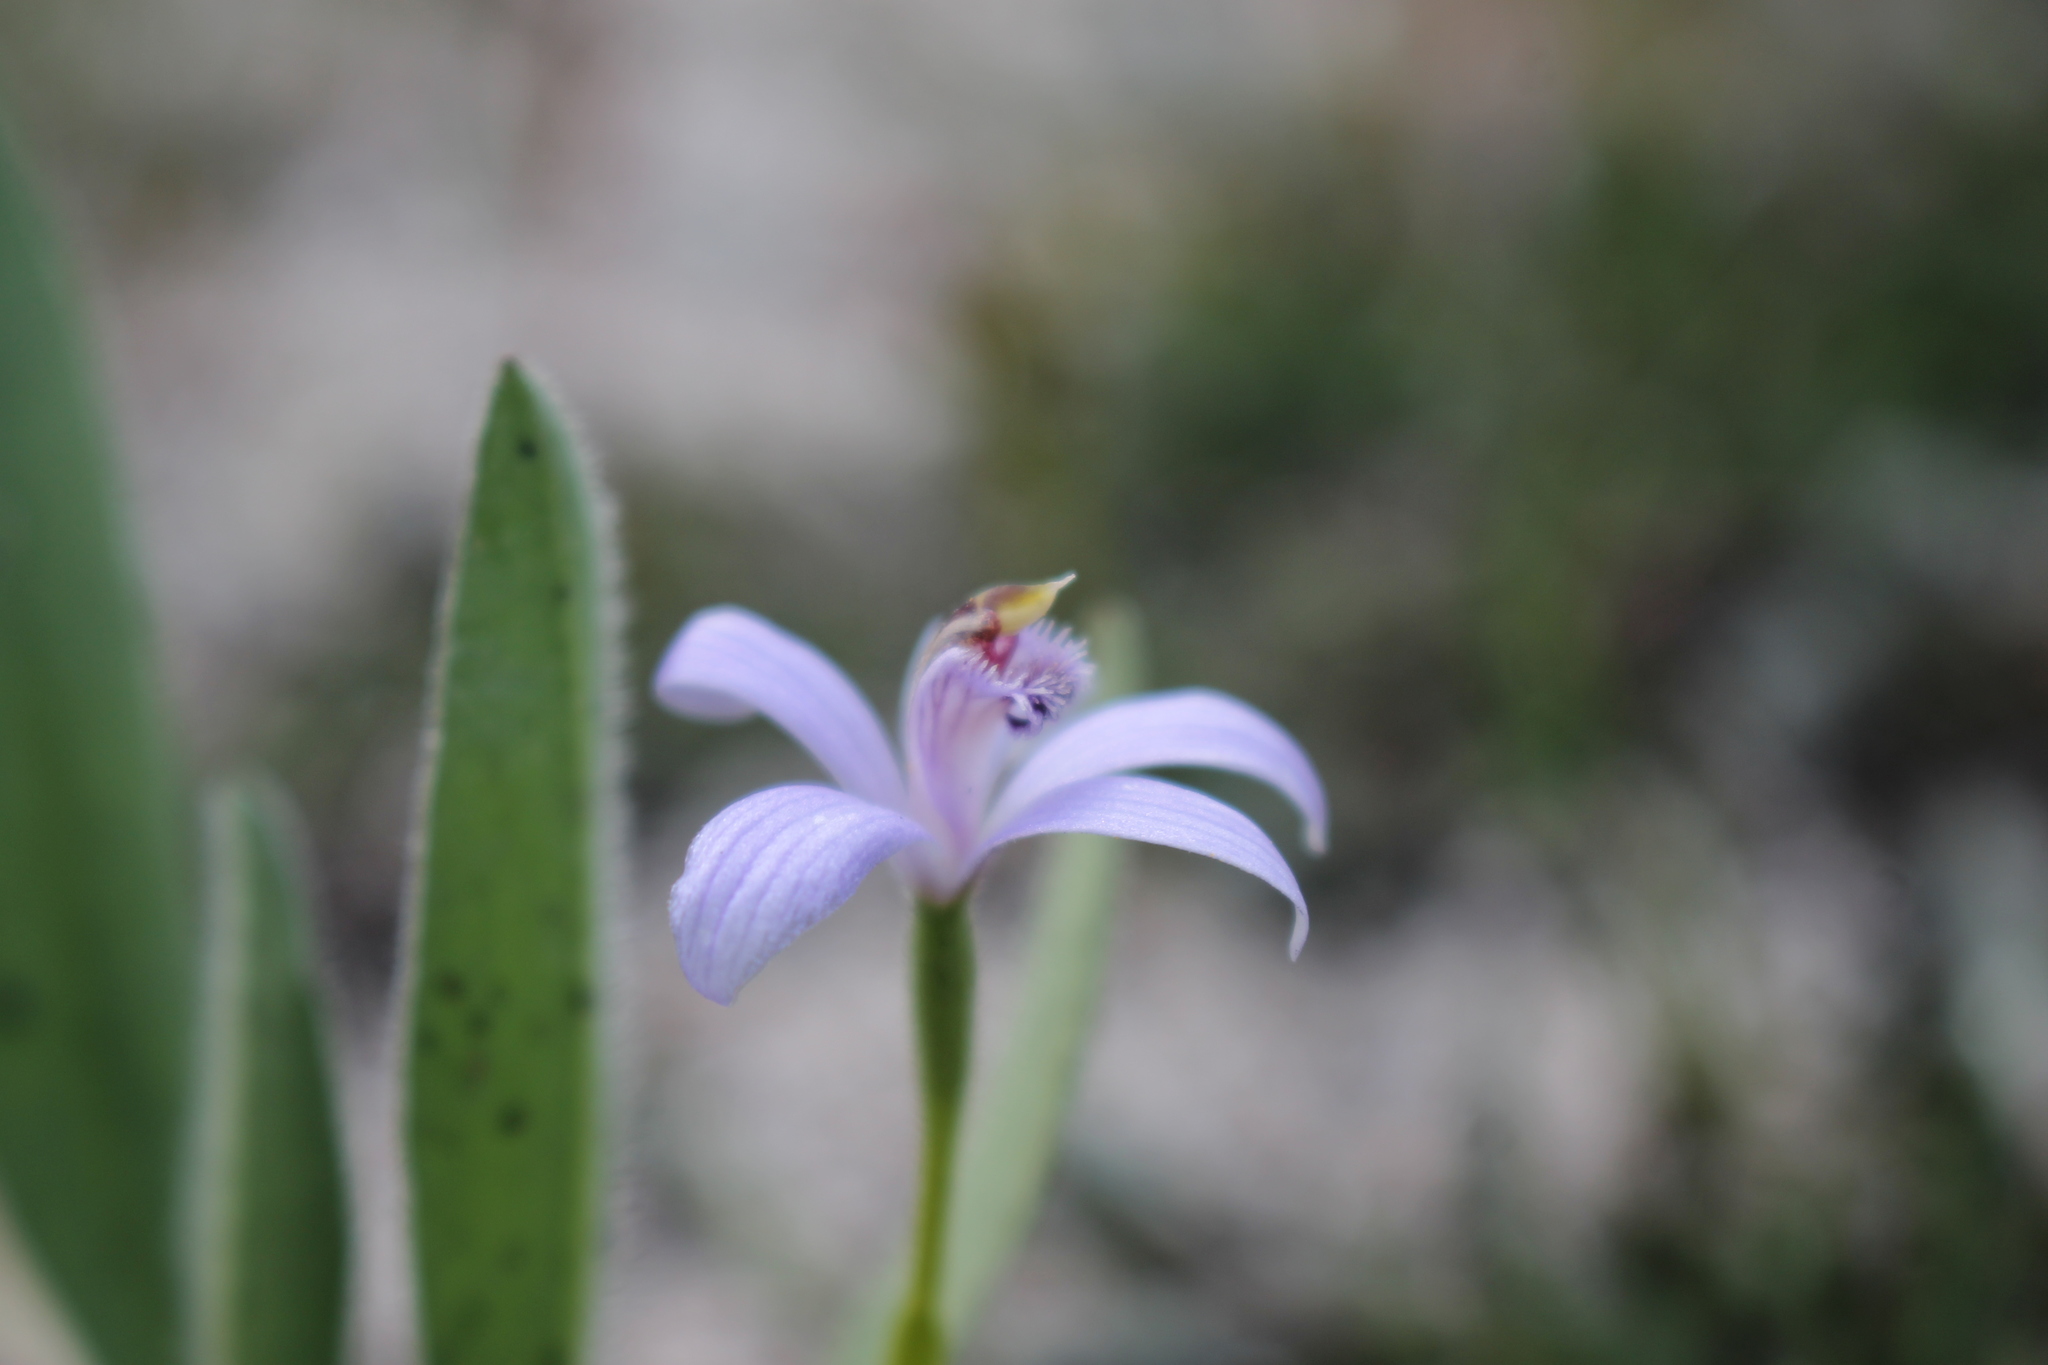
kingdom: Plantae
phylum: Tracheophyta
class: Liliopsida
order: Asparagales
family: Orchidaceae
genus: Pheladenia
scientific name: Pheladenia deformis
